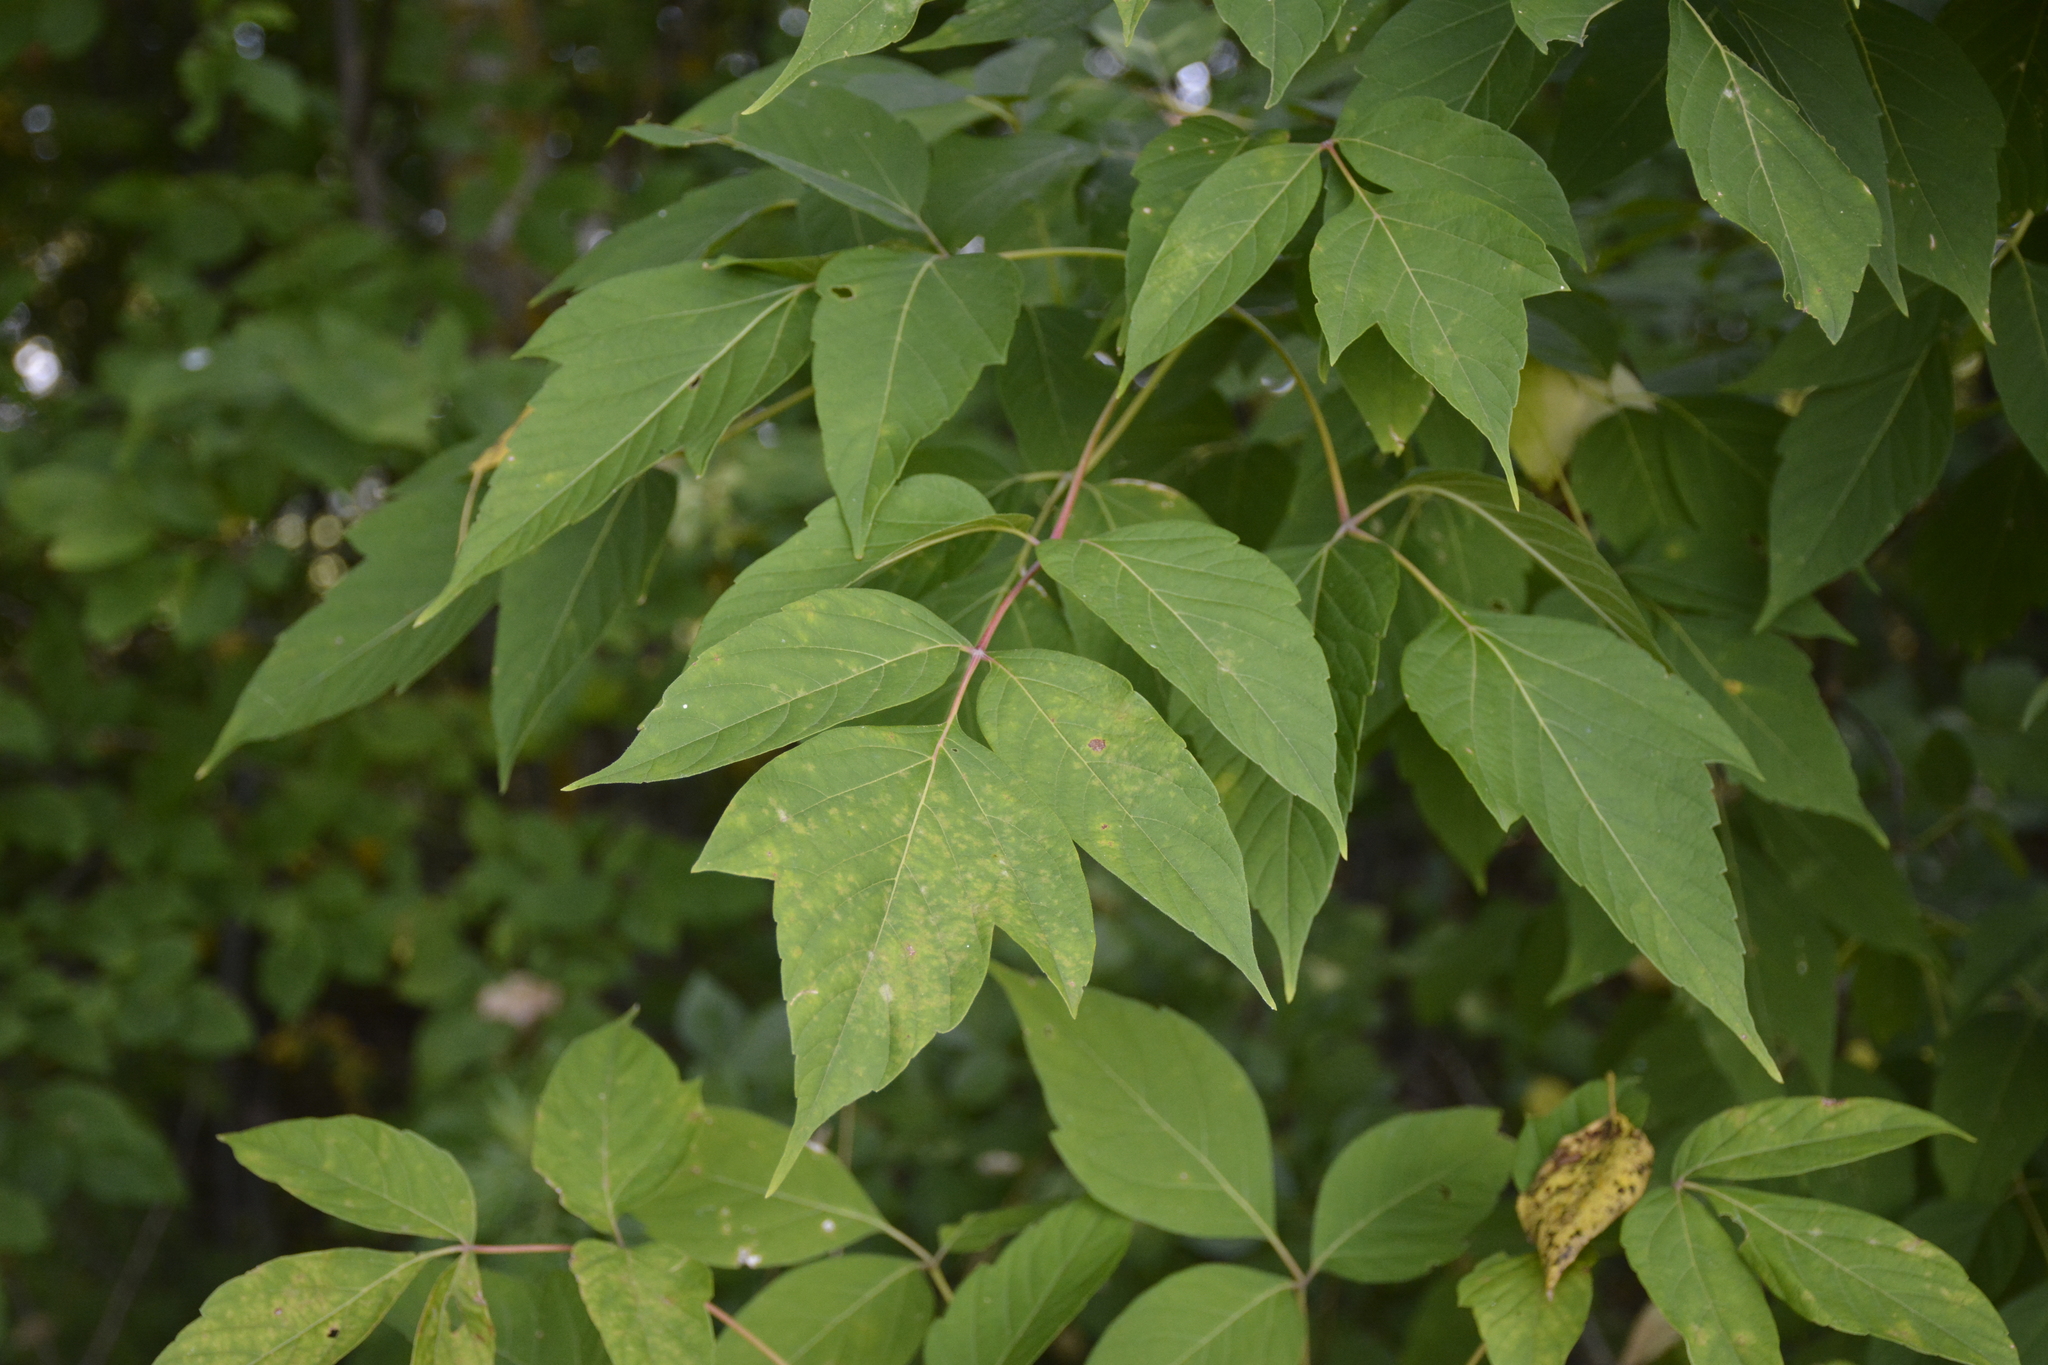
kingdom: Plantae
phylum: Tracheophyta
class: Magnoliopsida
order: Sapindales
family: Sapindaceae
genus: Acer
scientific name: Acer negundo
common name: Ashleaf maple
